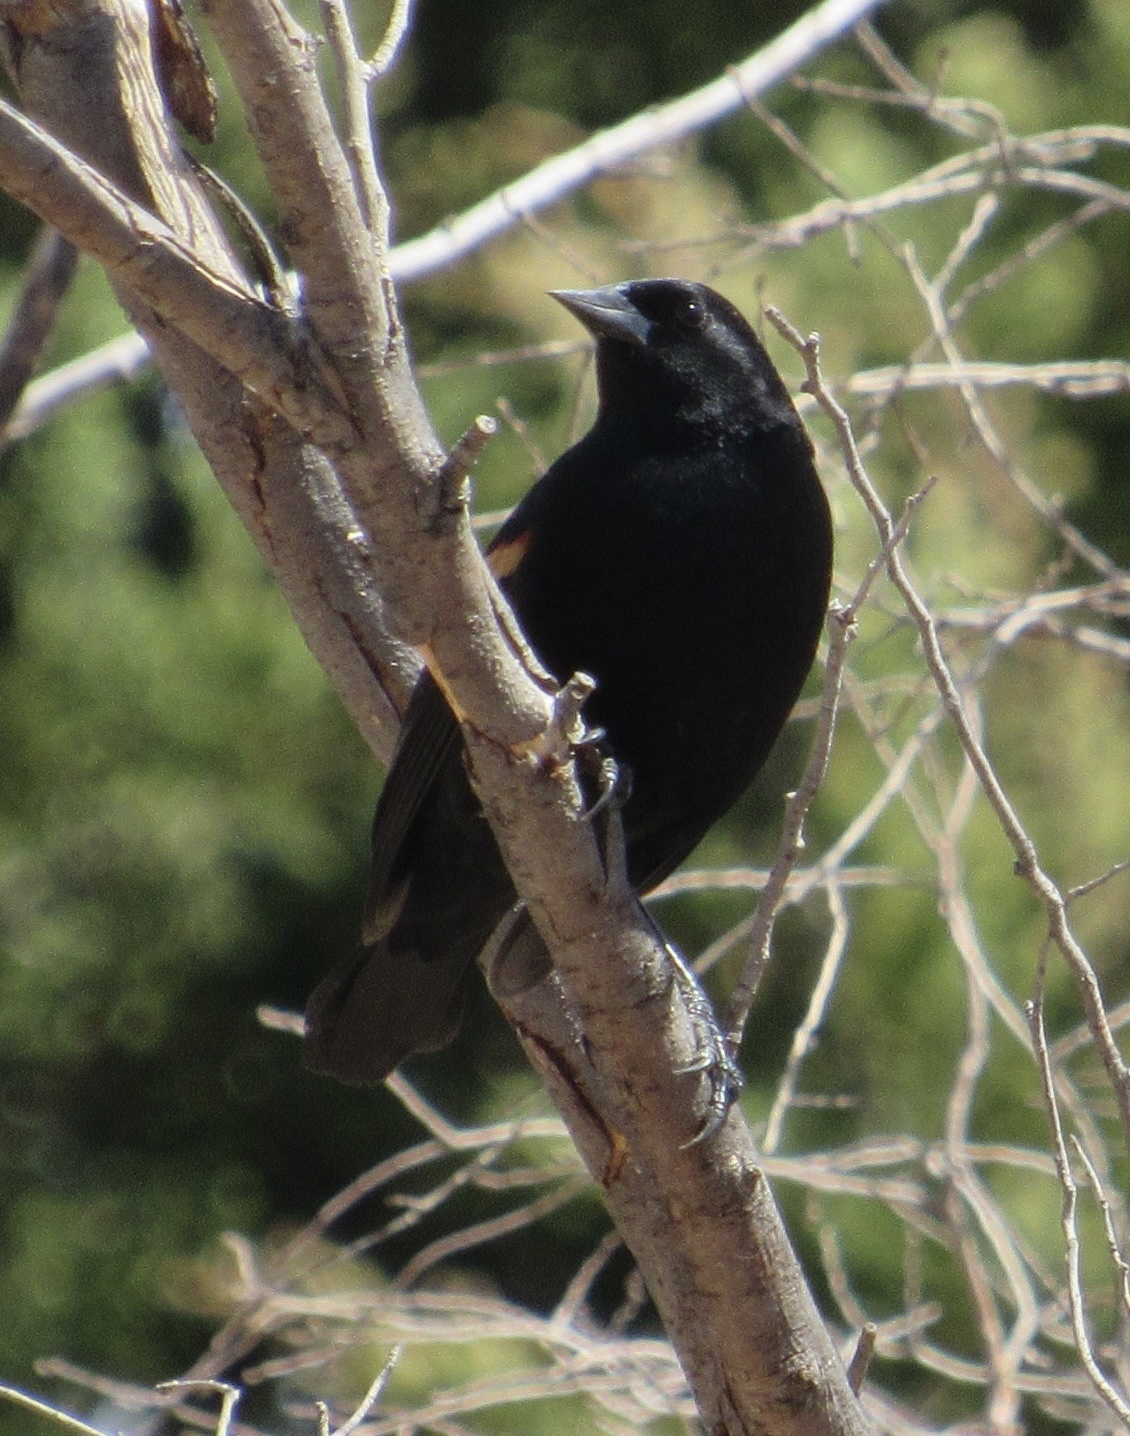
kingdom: Animalia
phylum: Chordata
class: Aves
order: Passeriformes
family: Icteridae
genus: Agelaius
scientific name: Agelaius phoeniceus
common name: Red-winged blackbird
